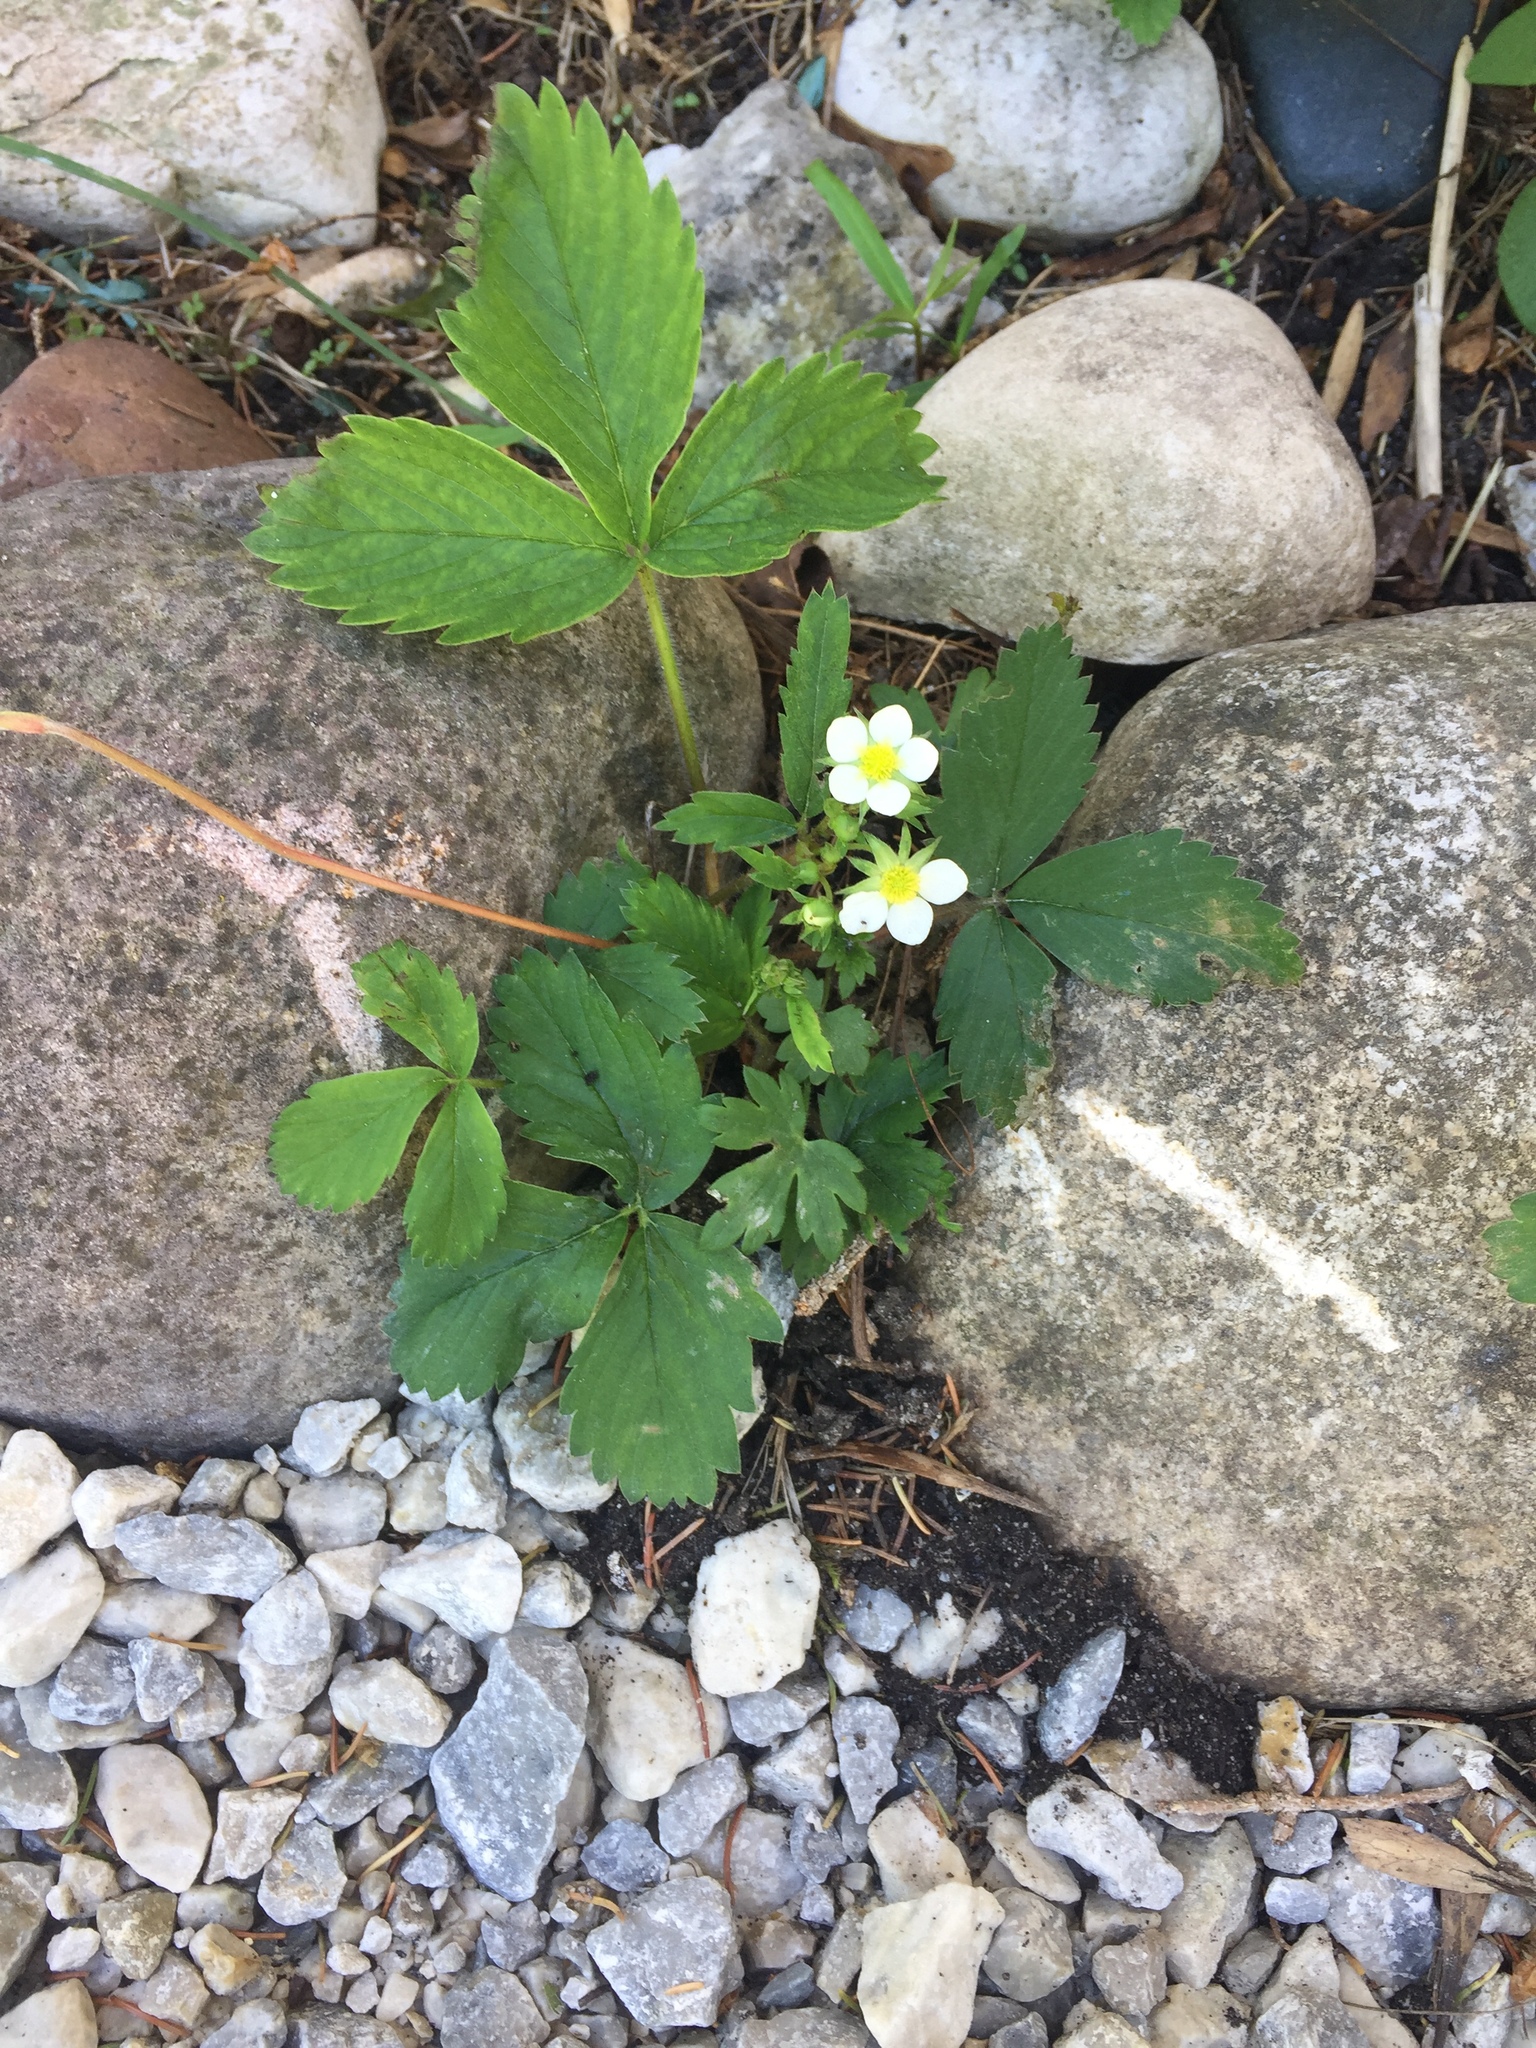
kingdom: Plantae
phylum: Tracheophyta
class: Magnoliopsida
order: Rosales
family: Rosaceae
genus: Fragaria
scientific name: Fragaria vesca
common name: Wild strawberry
